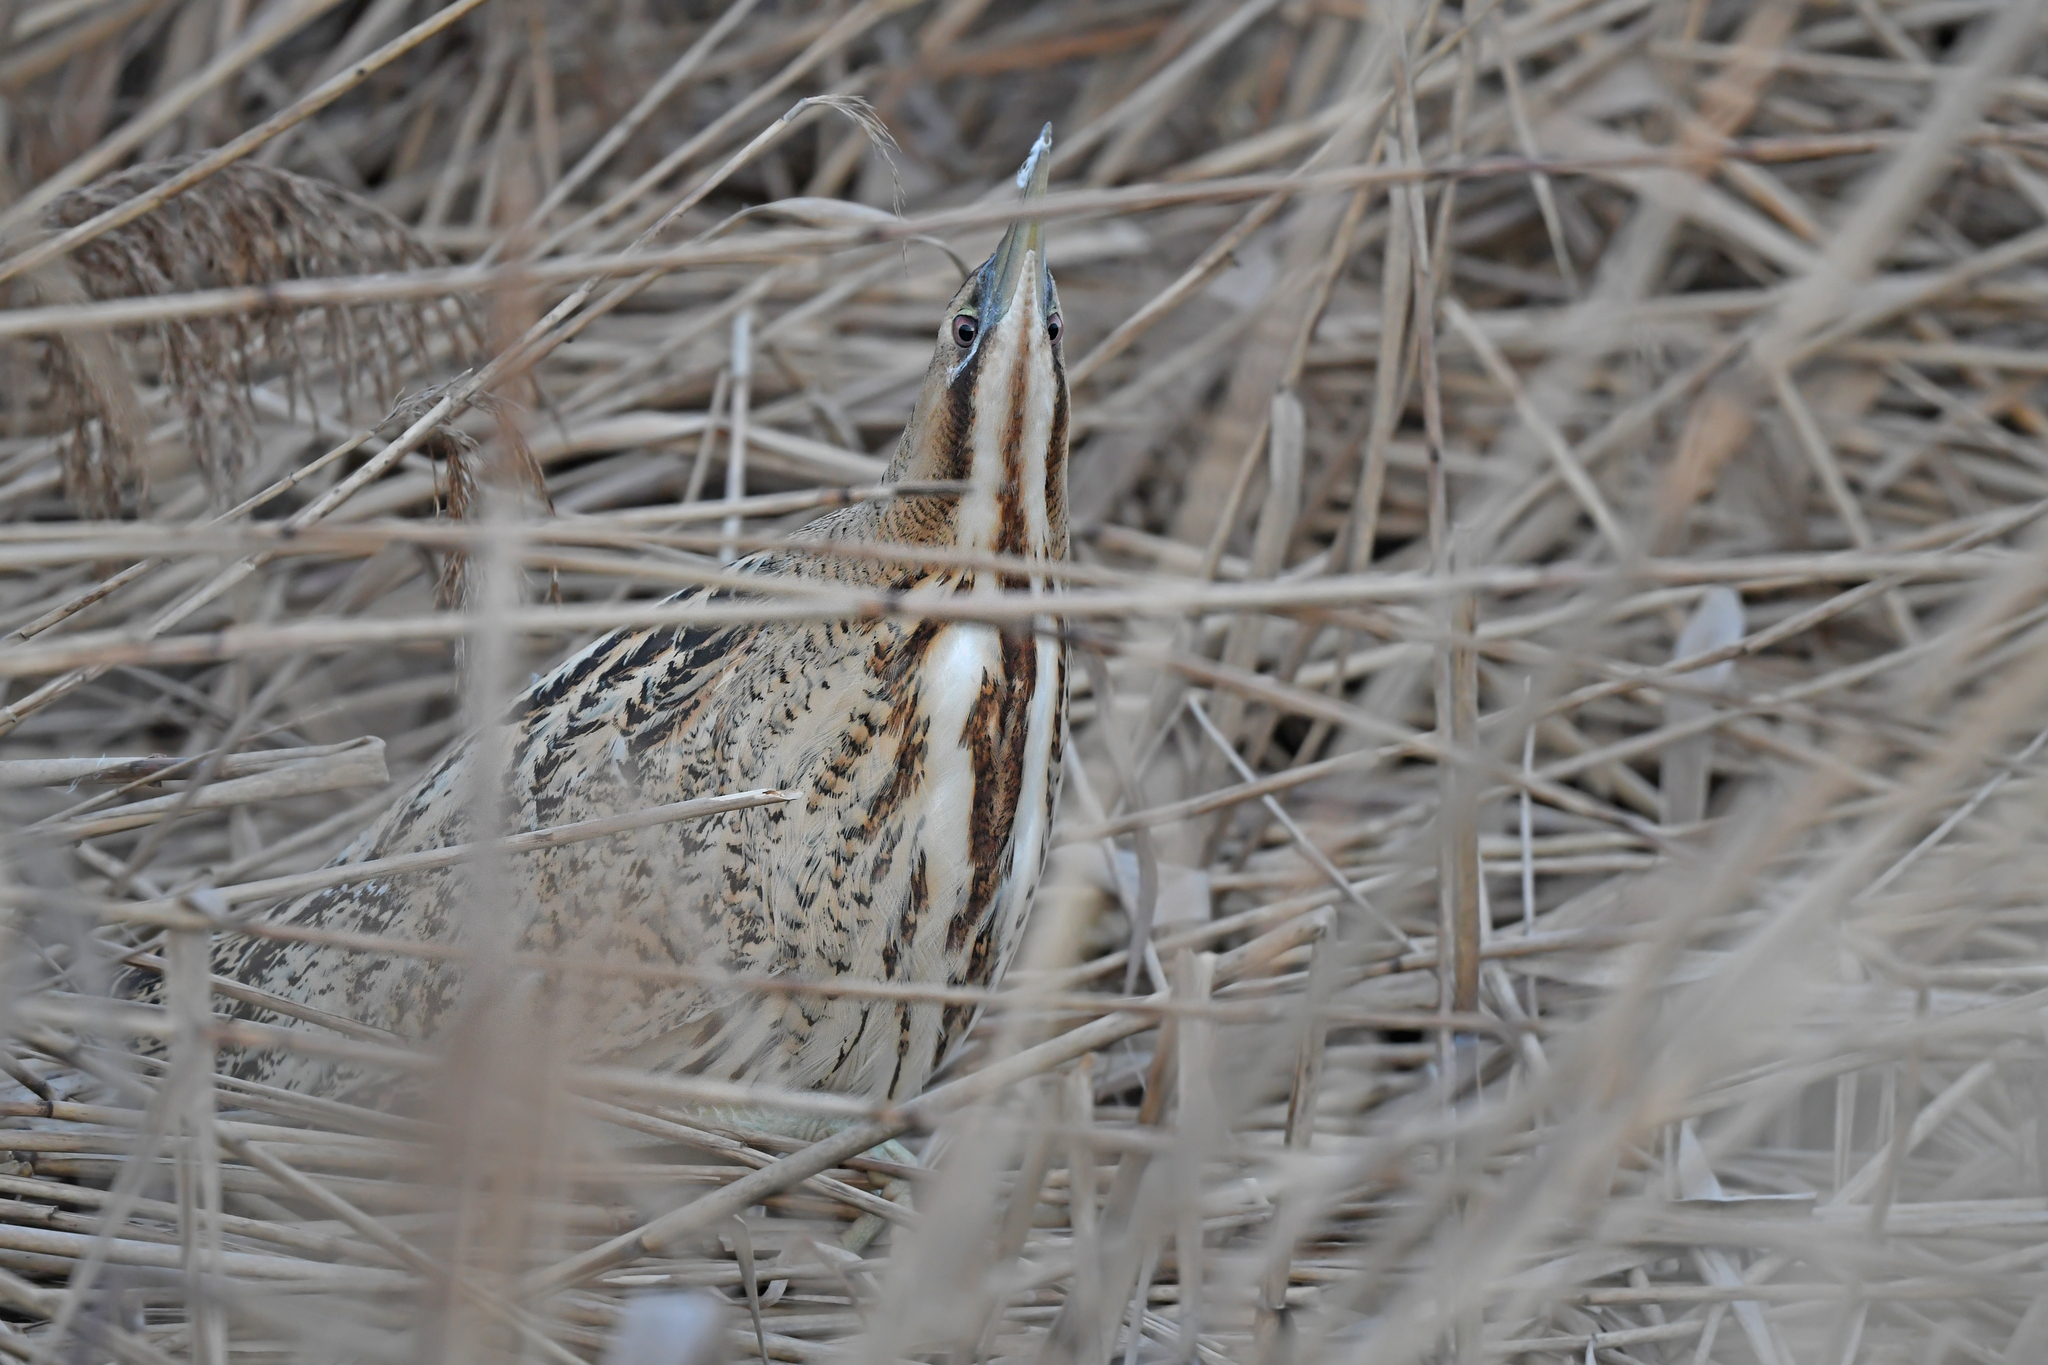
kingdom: Animalia
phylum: Chordata
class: Aves
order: Pelecaniformes
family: Ardeidae
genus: Botaurus
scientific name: Botaurus stellaris
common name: Eurasian bittern
